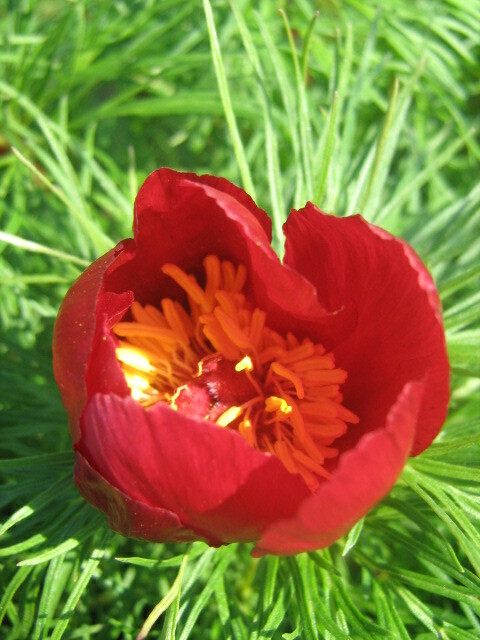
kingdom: Plantae
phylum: Tracheophyta
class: Magnoliopsida
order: Saxifragales
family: Paeoniaceae
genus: Paeonia
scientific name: Paeonia tenuifolia
